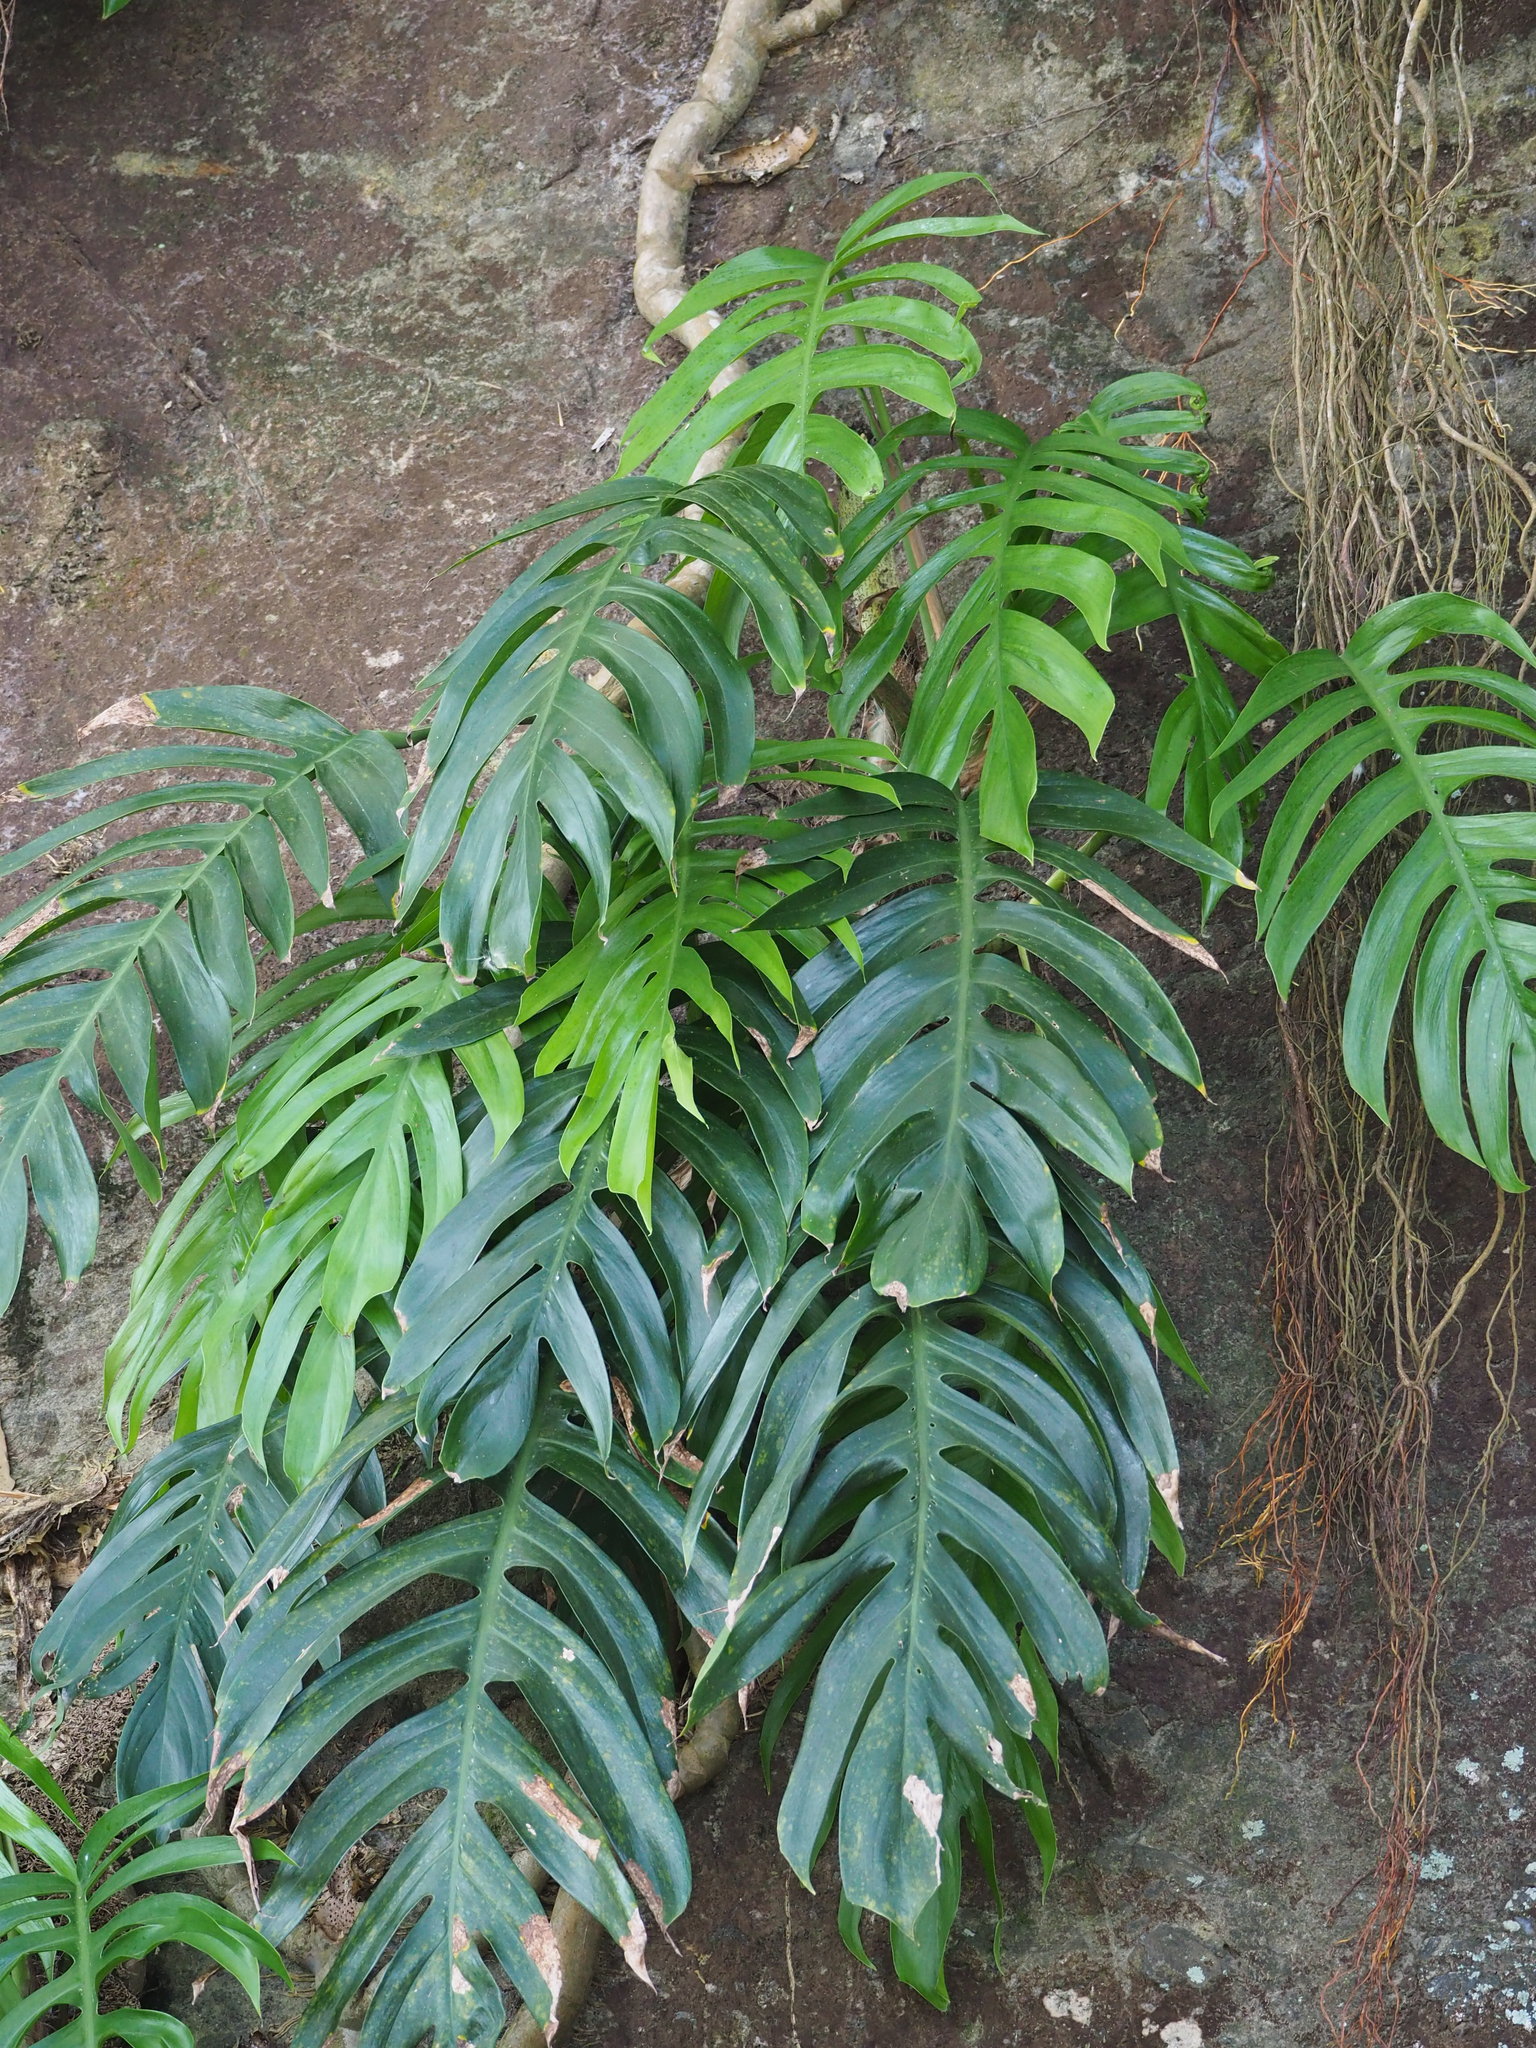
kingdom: Plantae
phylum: Tracheophyta
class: Liliopsida
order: Alismatales
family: Araceae
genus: Epipremnum
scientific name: Epipremnum pinnatum
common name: Centipede tongavine
